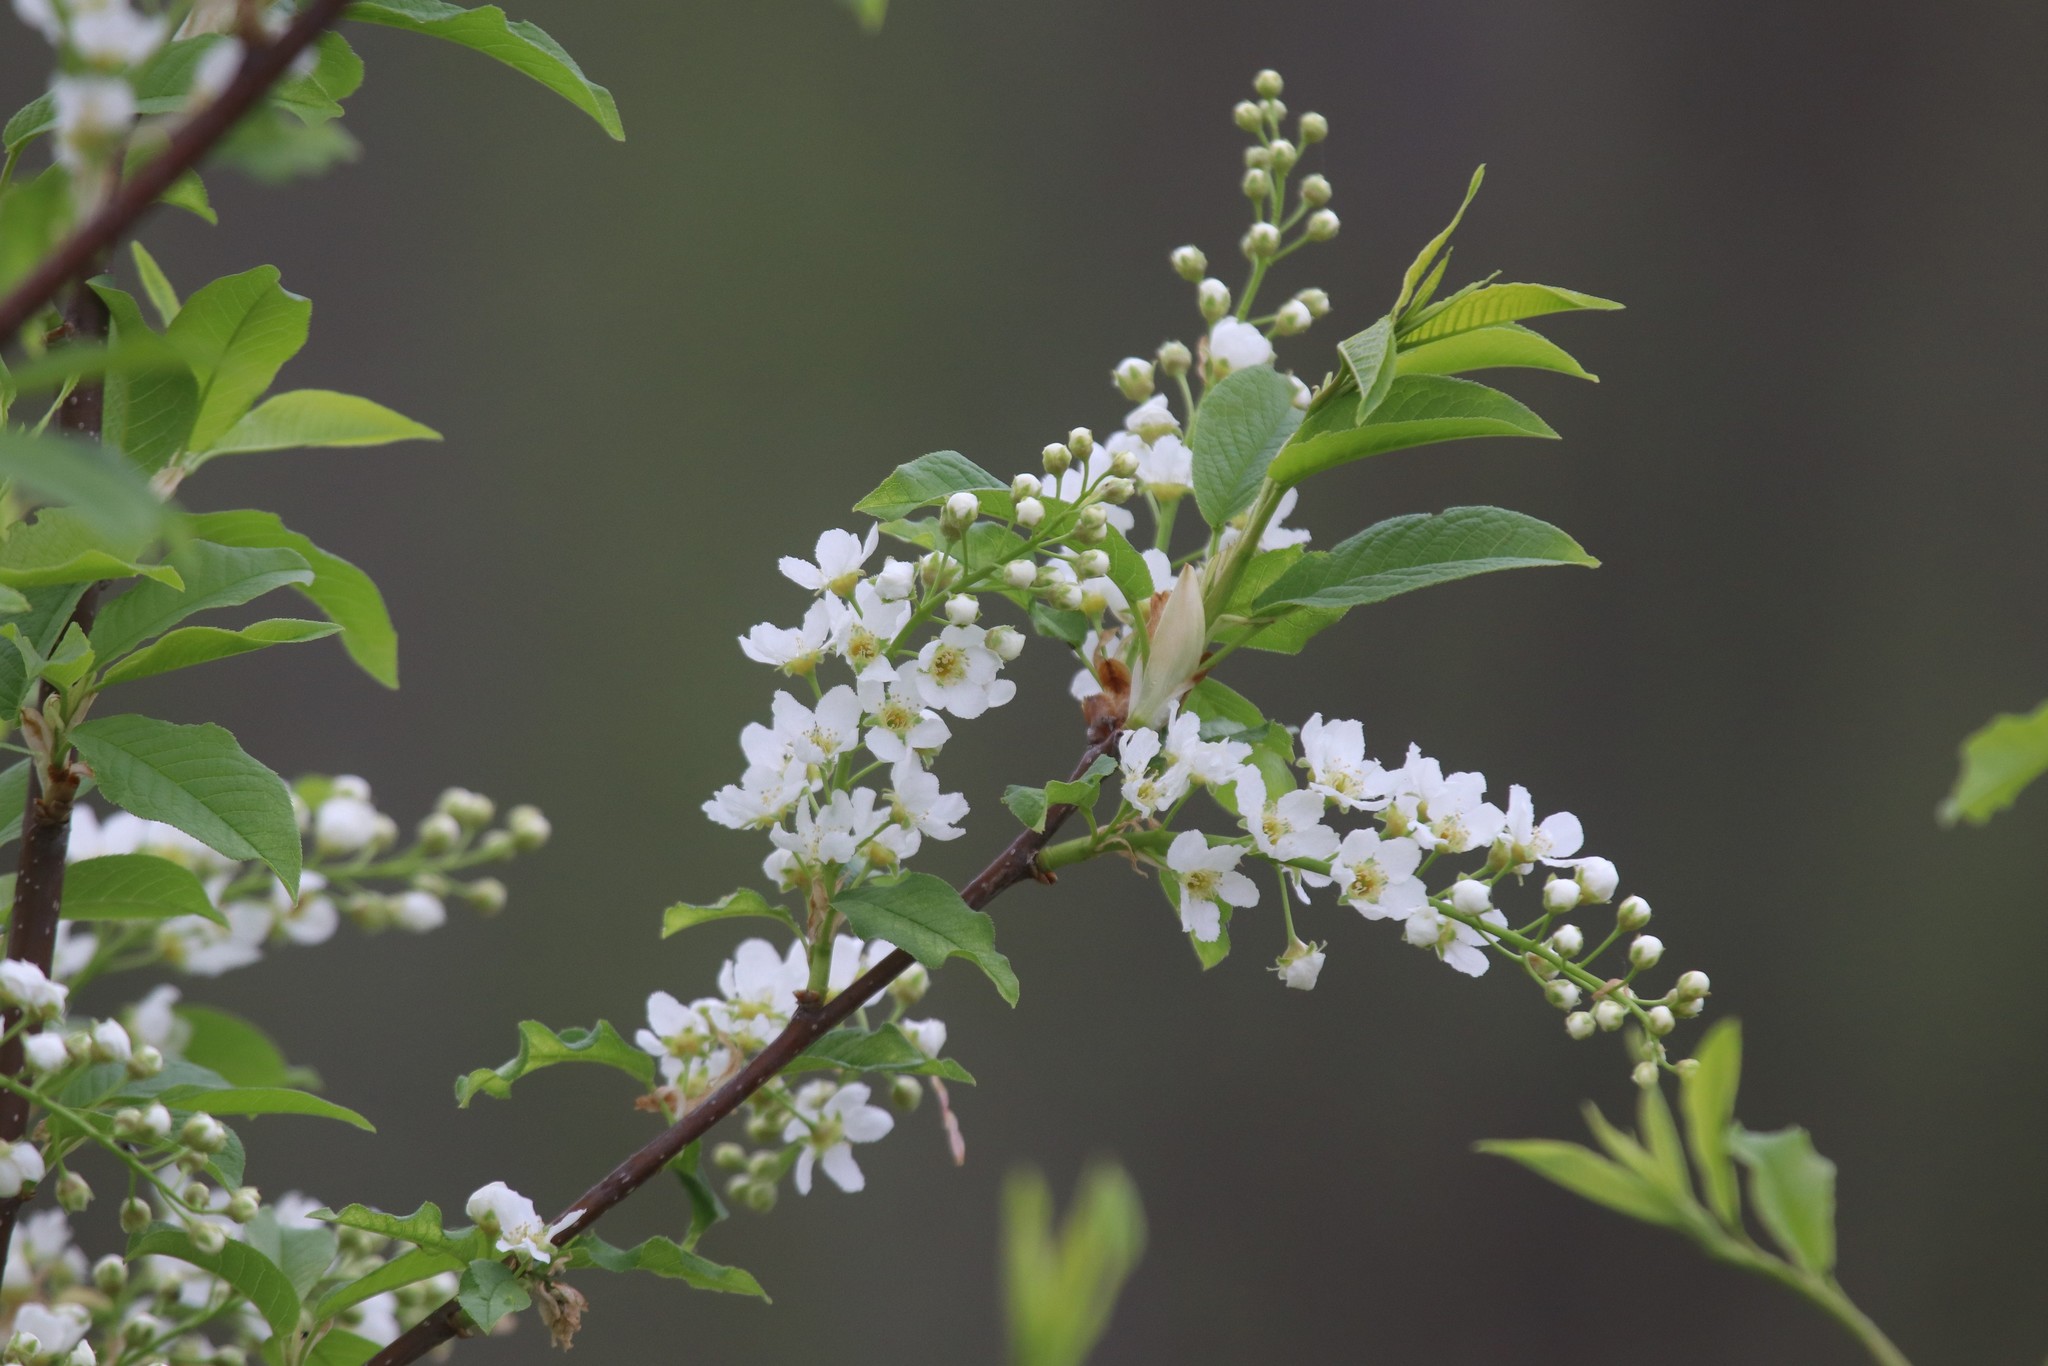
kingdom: Plantae
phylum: Tracheophyta
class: Magnoliopsida
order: Rosales
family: Rosaceae
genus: Prunus
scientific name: Prunus padus
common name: Bird cherry
